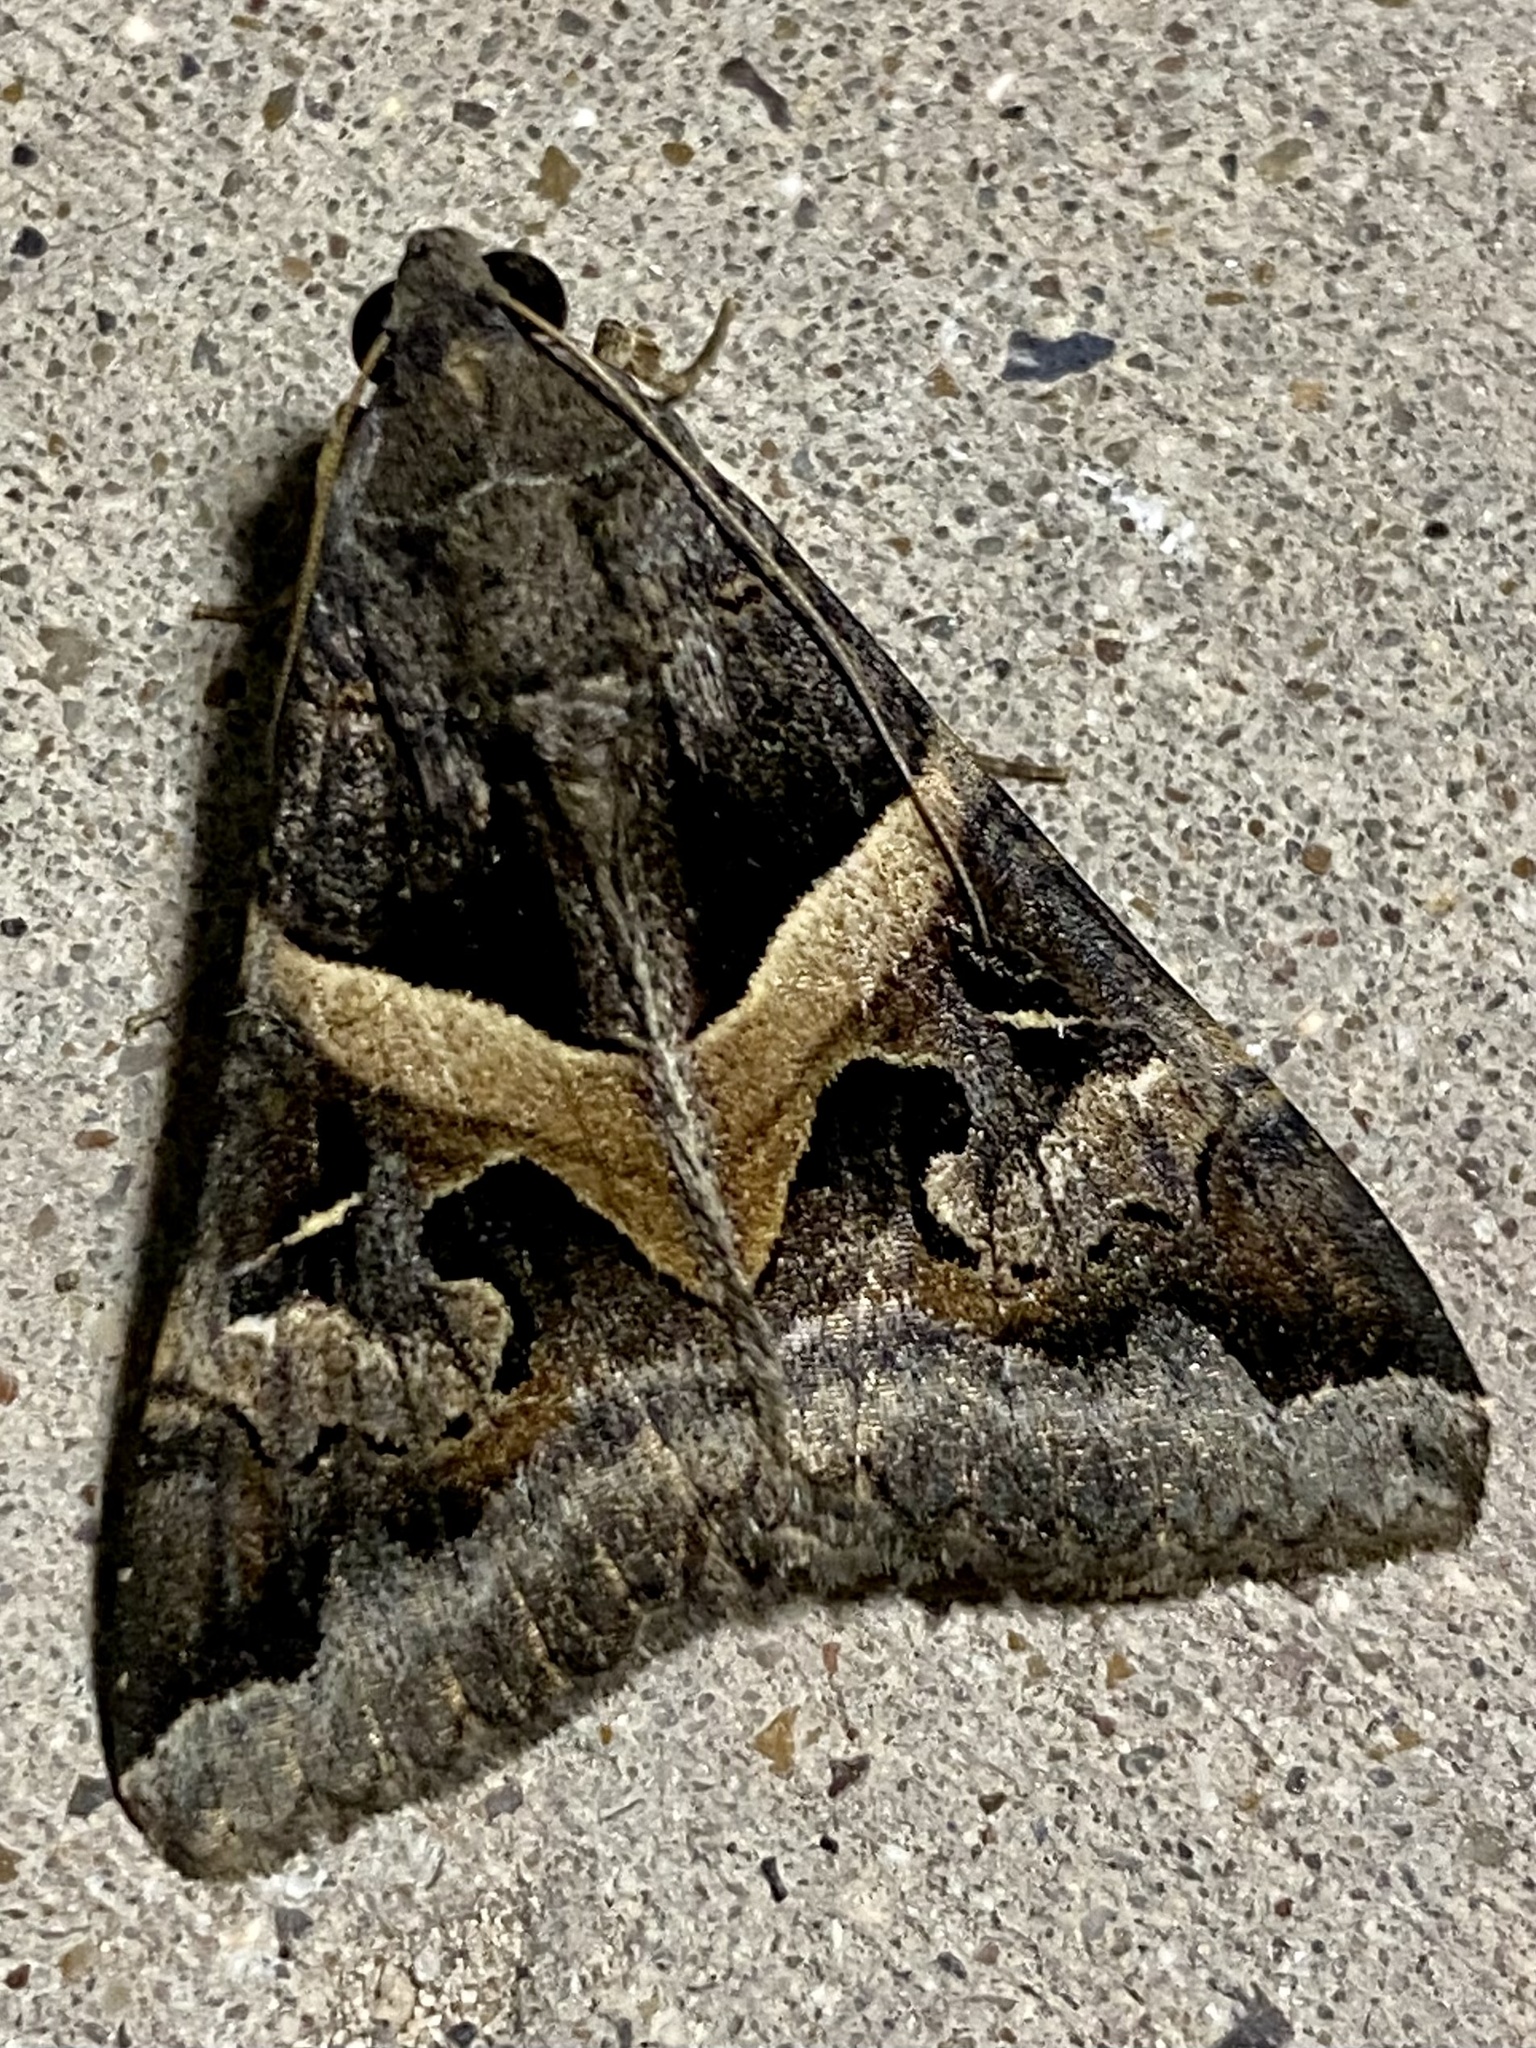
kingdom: Animalia
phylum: Arthropoda
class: Insecta
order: Lepidoptera
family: Erebidae
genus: Melipotis
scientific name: Melipotis indomita
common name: Moth
